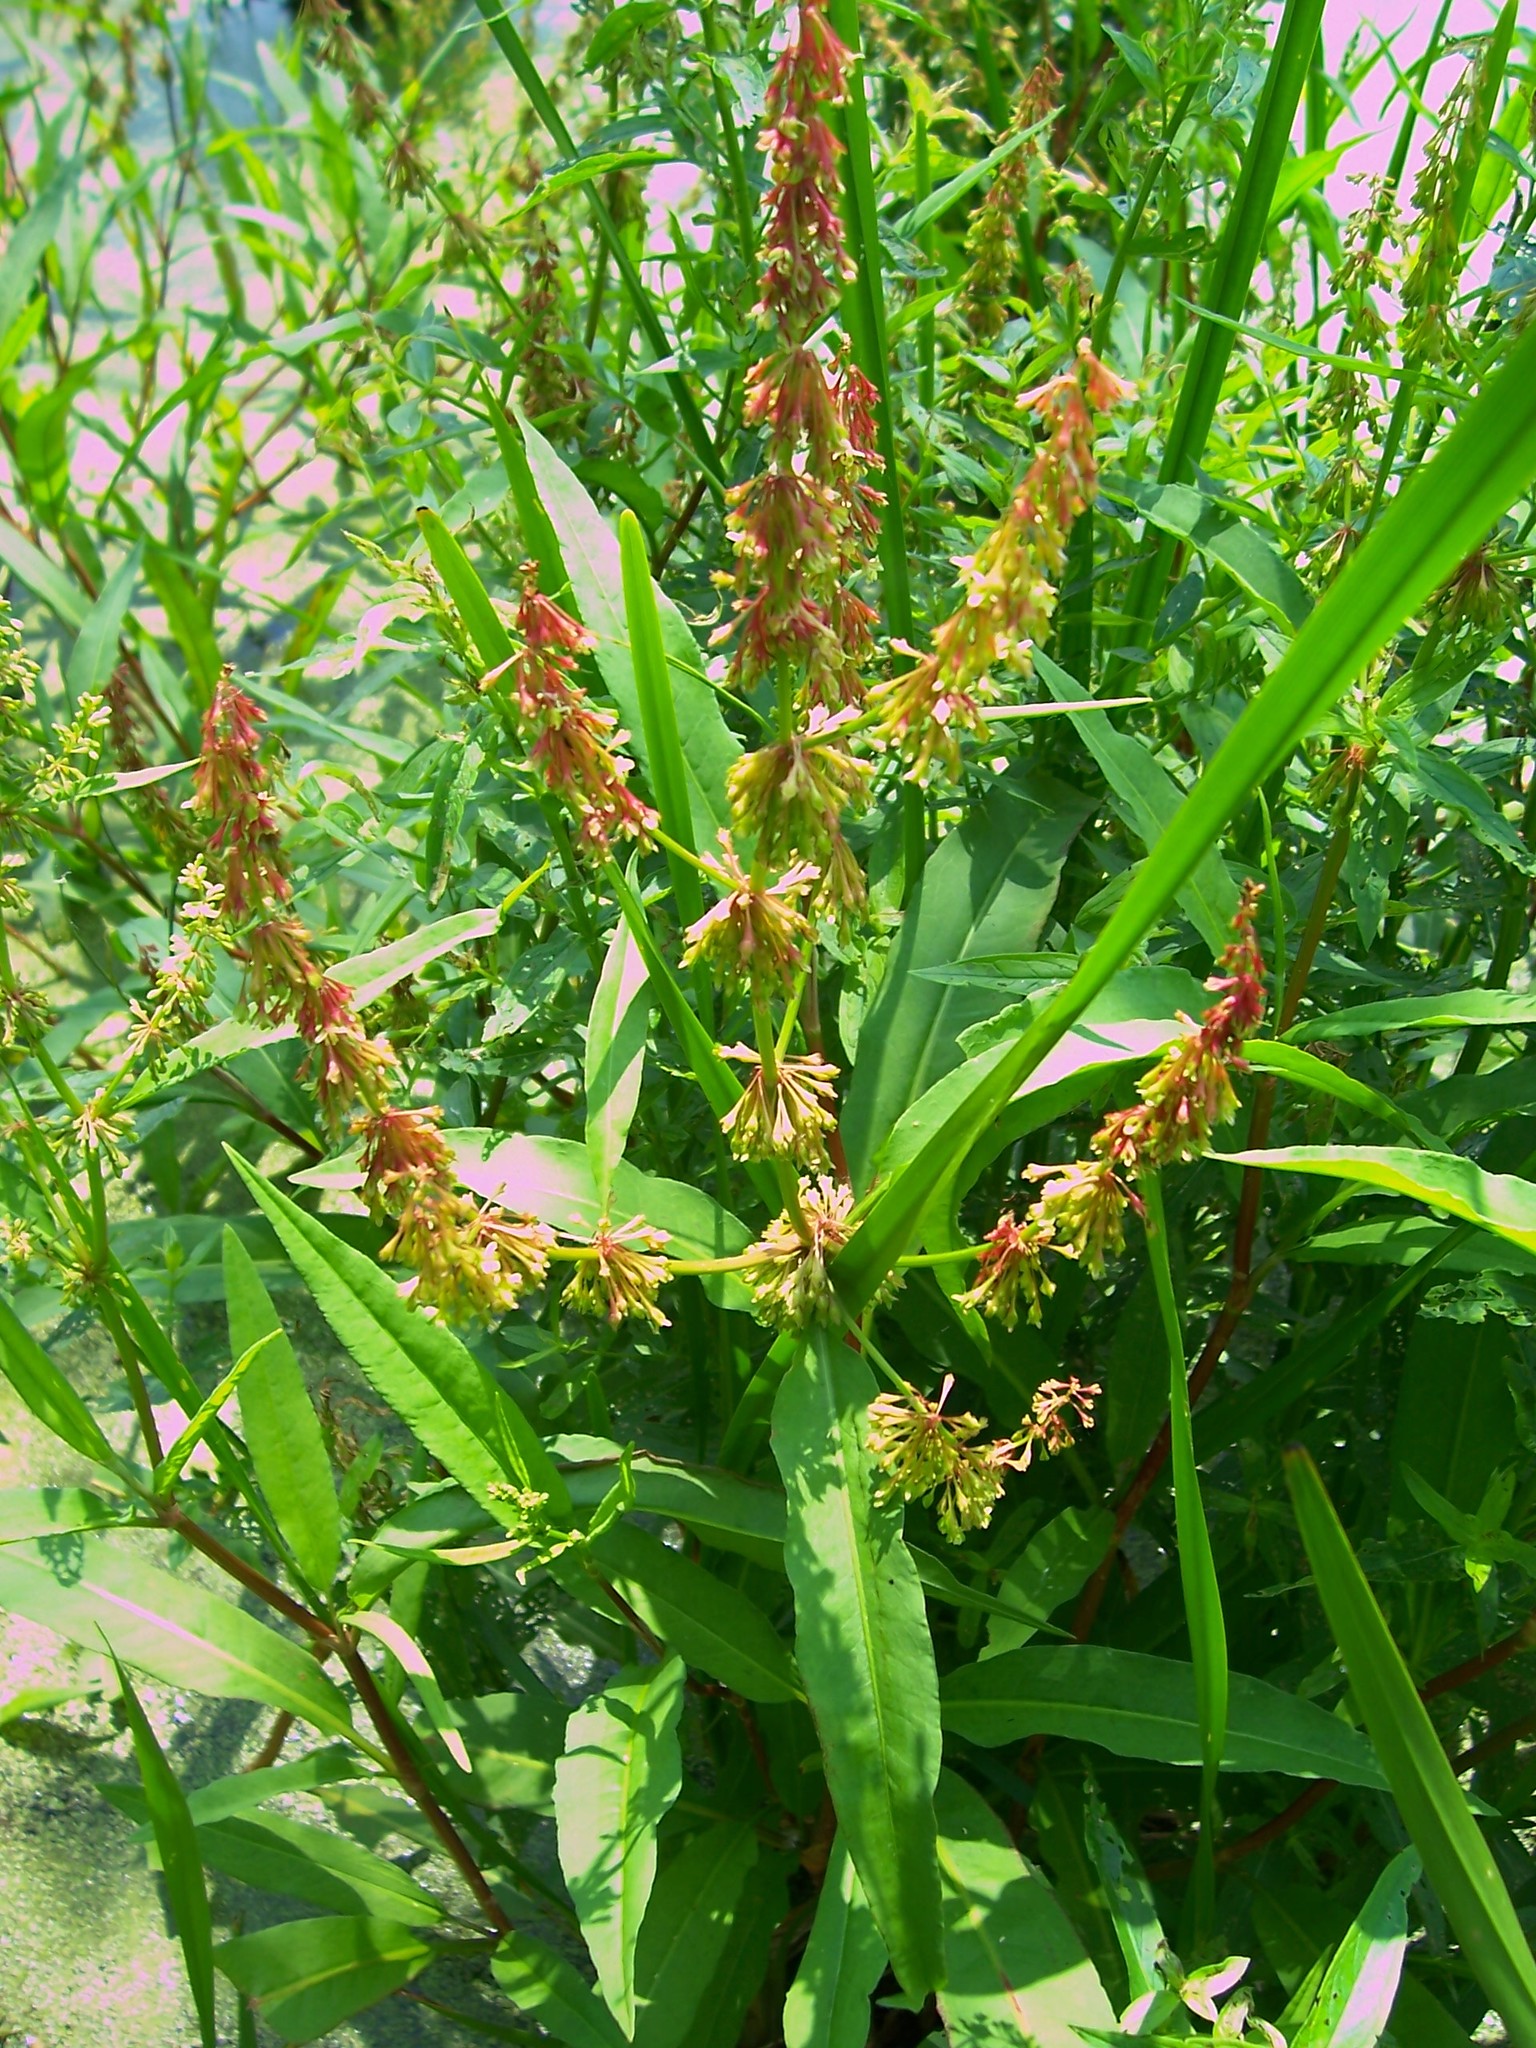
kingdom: Plantae
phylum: Tracheophyta
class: Magnoliopsida
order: Caryophyllales
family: Polygonaceae
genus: Rumex
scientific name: Rumex verticillatus
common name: Swamp dock
